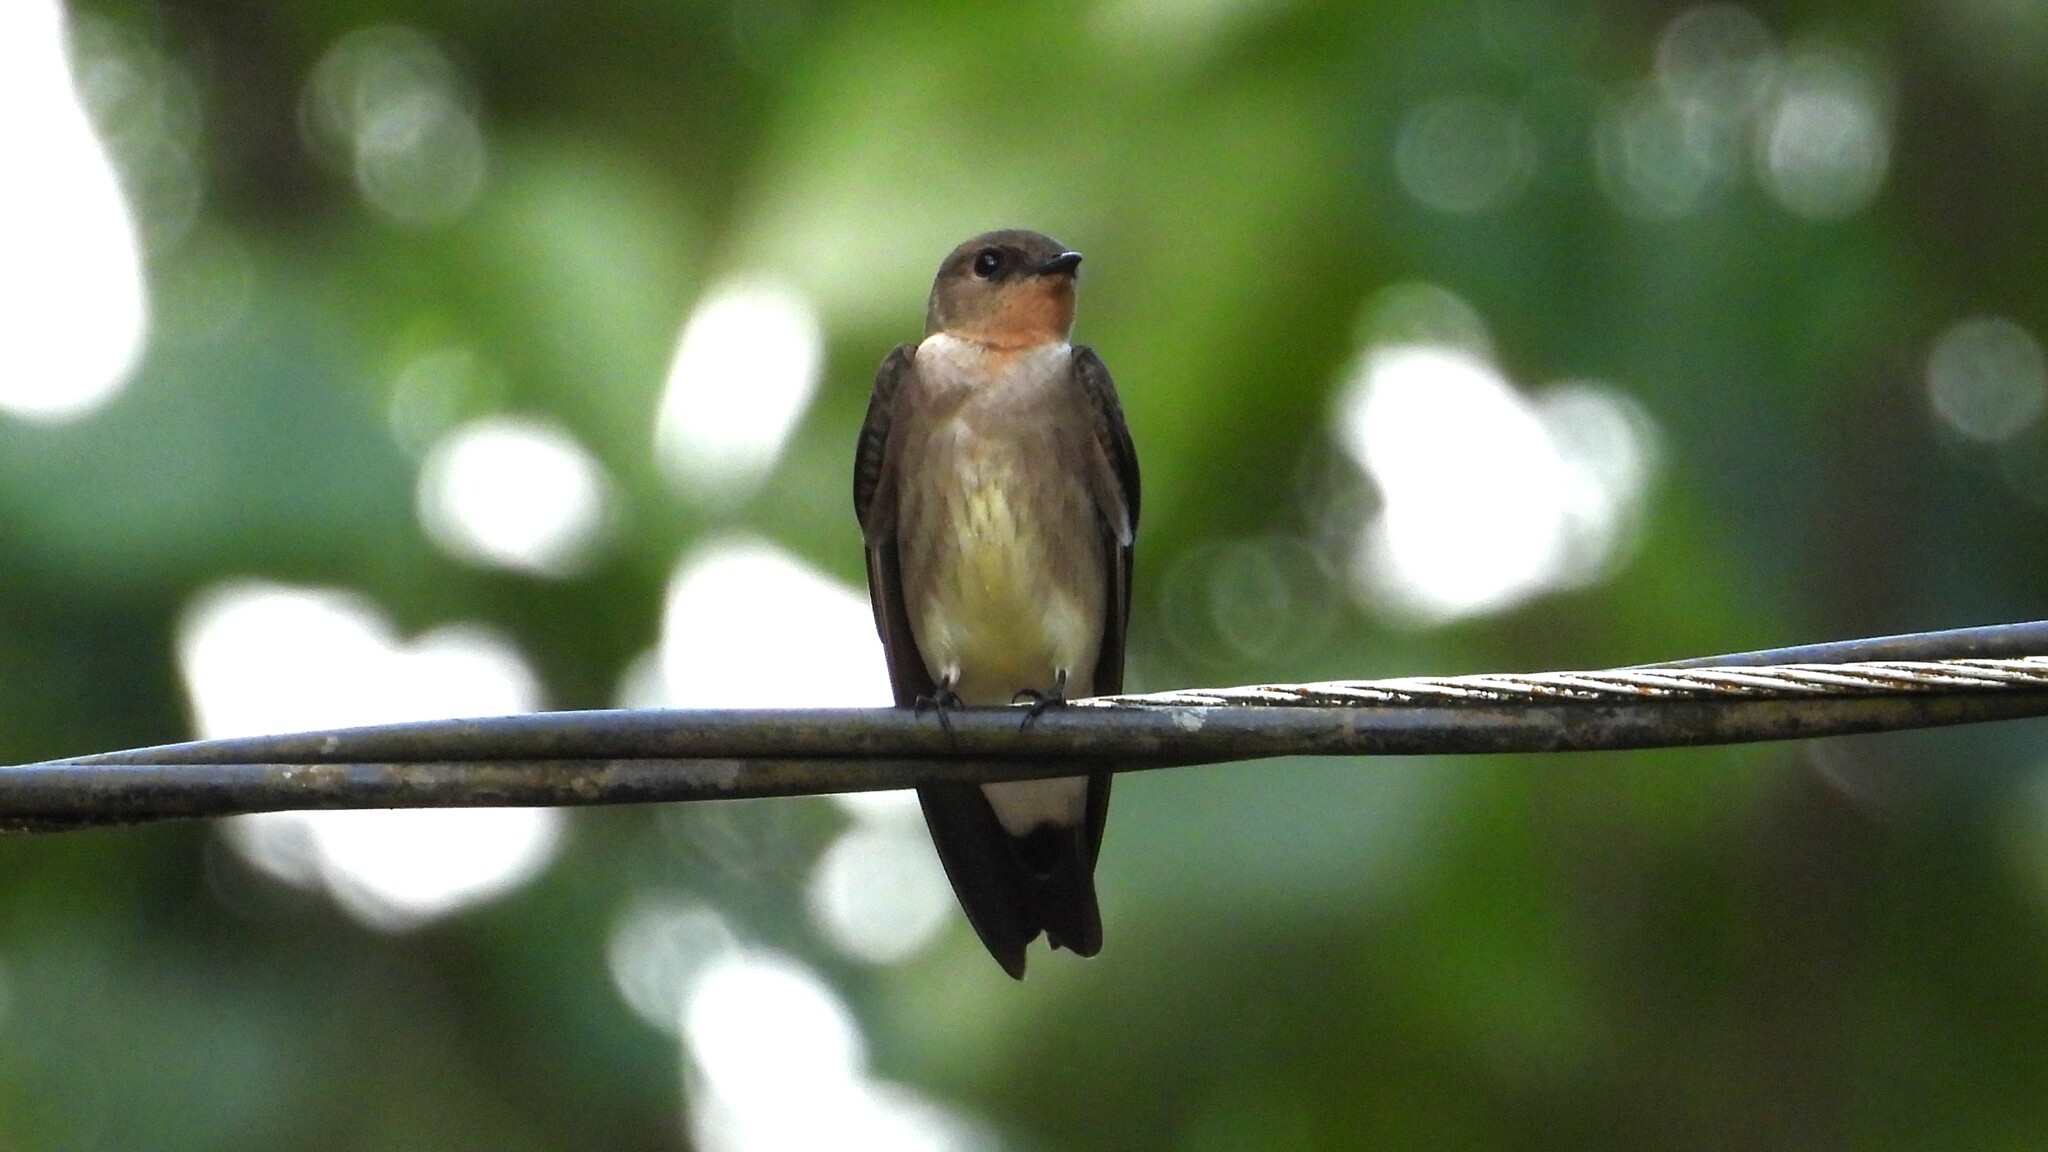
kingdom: Animalia
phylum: Chordata
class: Aves
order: Passeriformes
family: Hirundinidae
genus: Stelgidopteryx
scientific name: Stelgidopteryx ruficollis
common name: Southern rough-winged swallow
